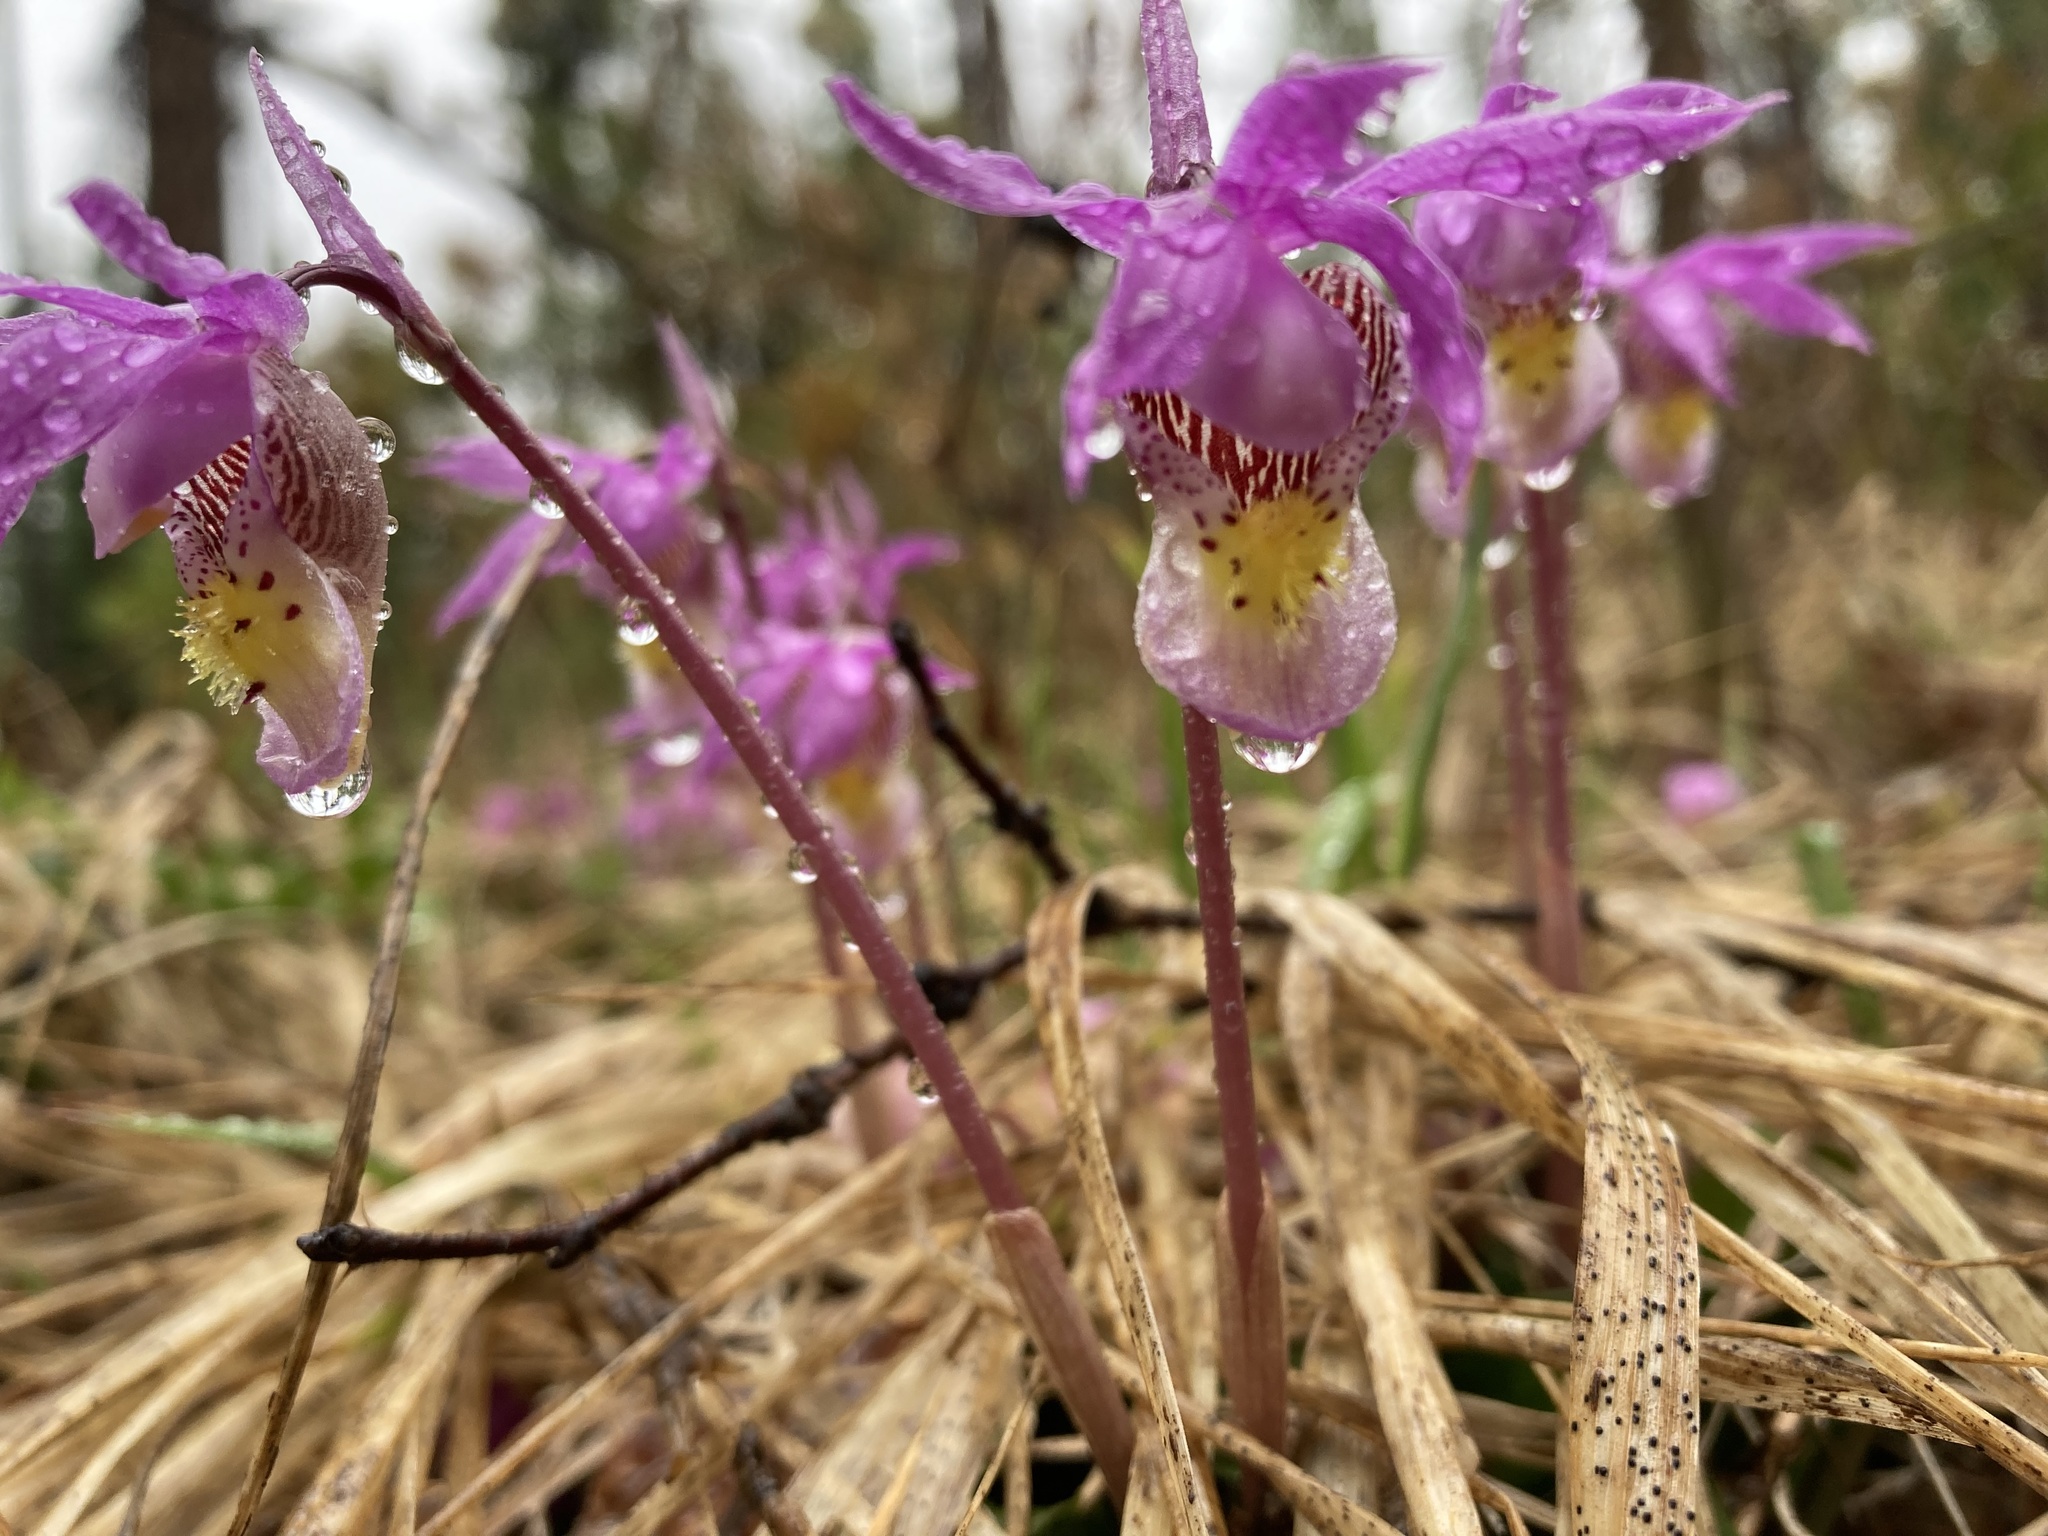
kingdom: Plantae
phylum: Tracheophyta
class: Liliopsida
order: Asparagales
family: Orchidaceae
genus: Calypso
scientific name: Calypso bulbosa
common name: Calypso
